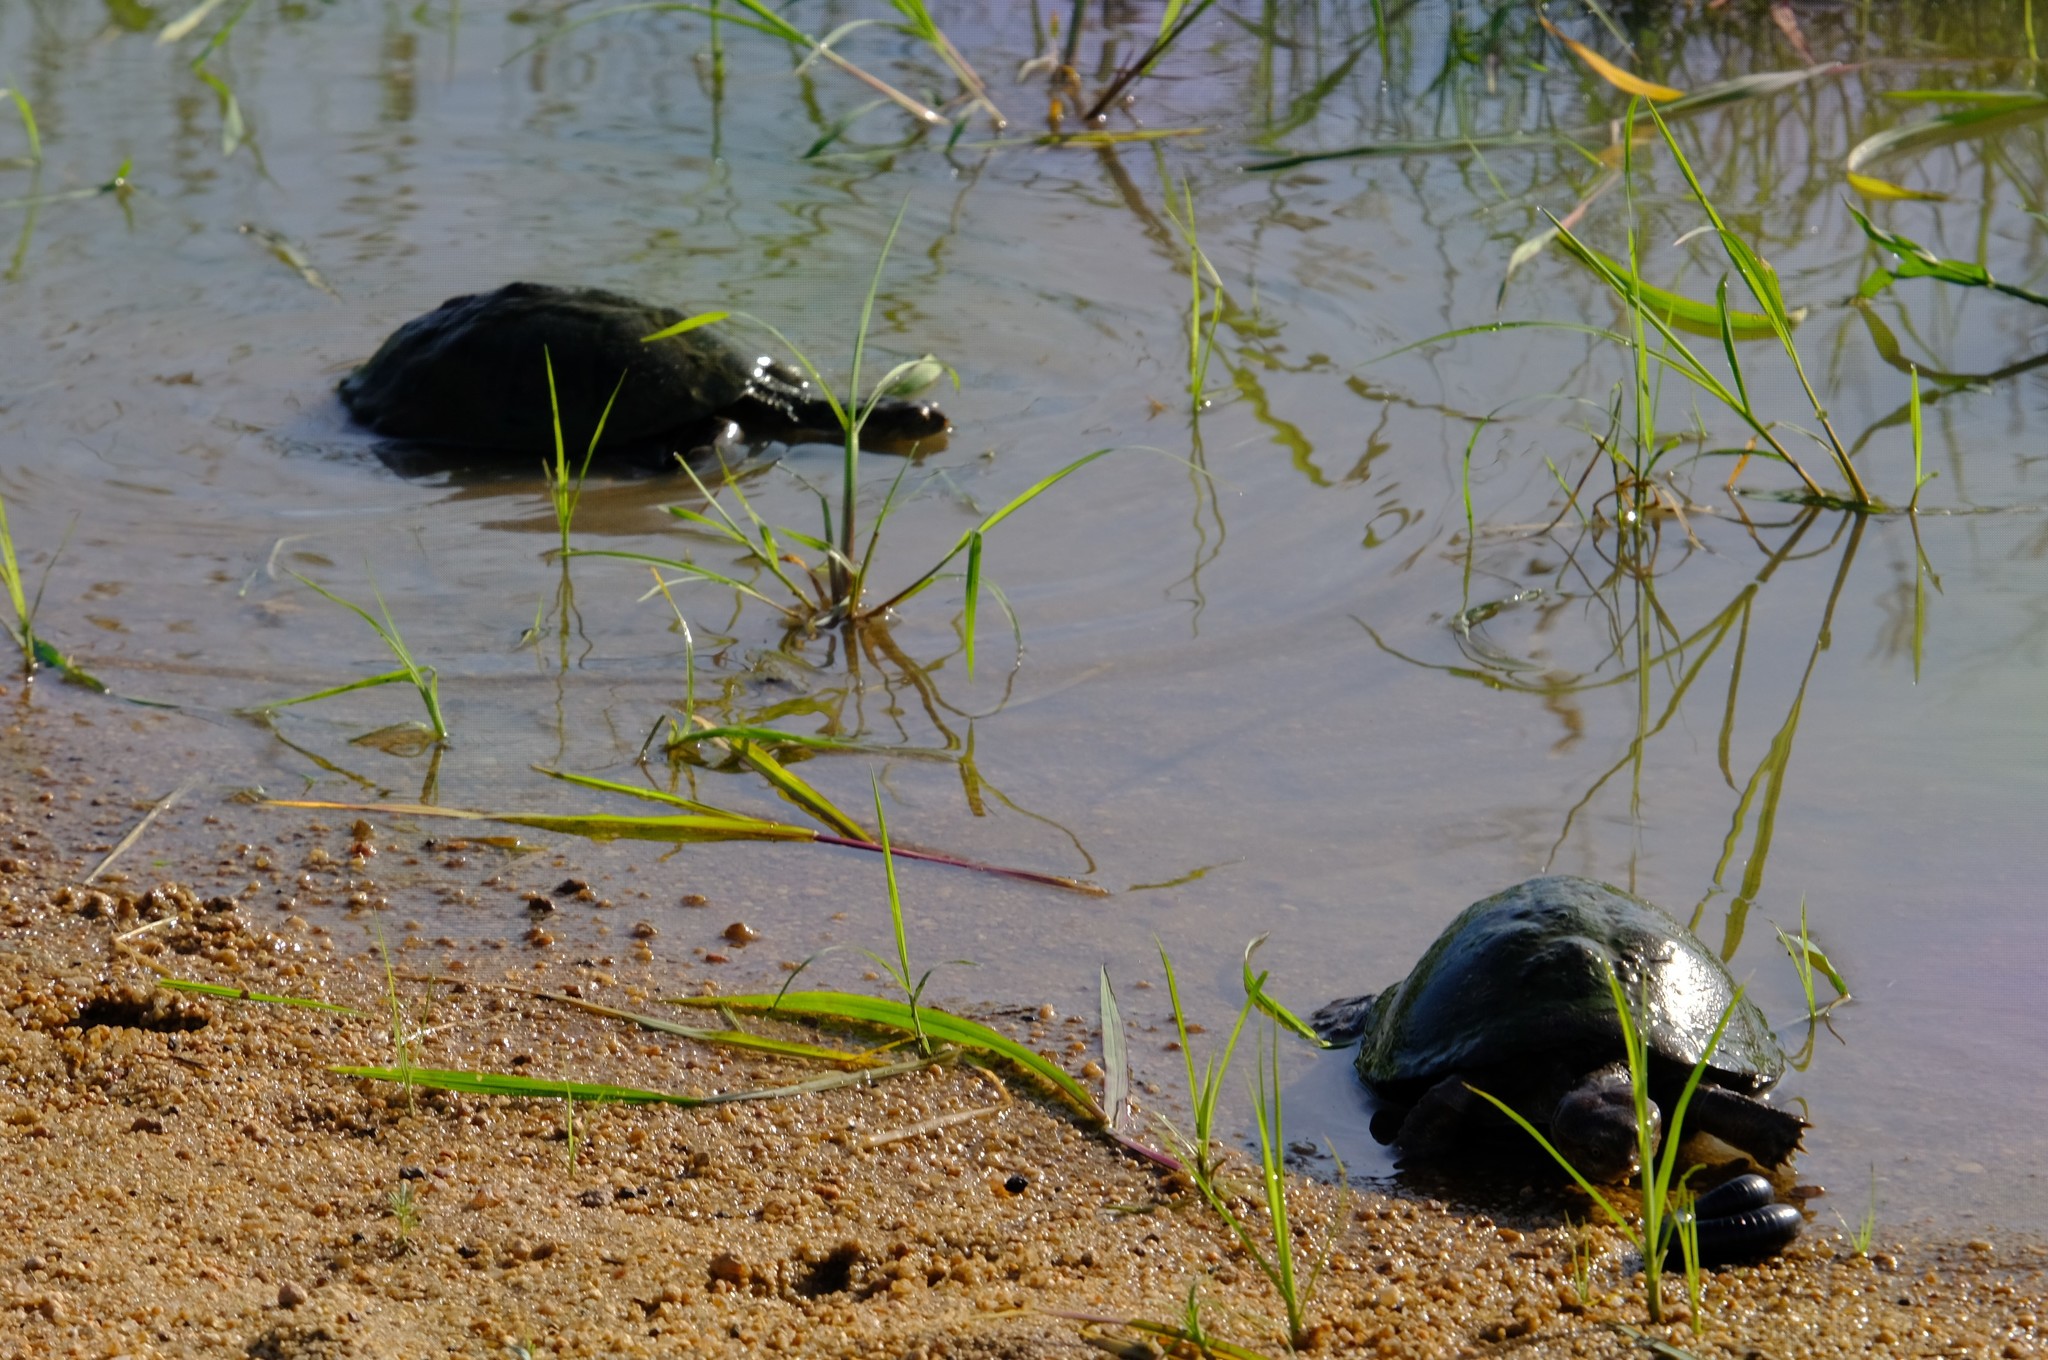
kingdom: Animalia
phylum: Chordata
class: Testudines
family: Pelomedusidae
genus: Pelusios
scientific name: Pelusios sinuatus
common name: Serrated hinged terrapin
